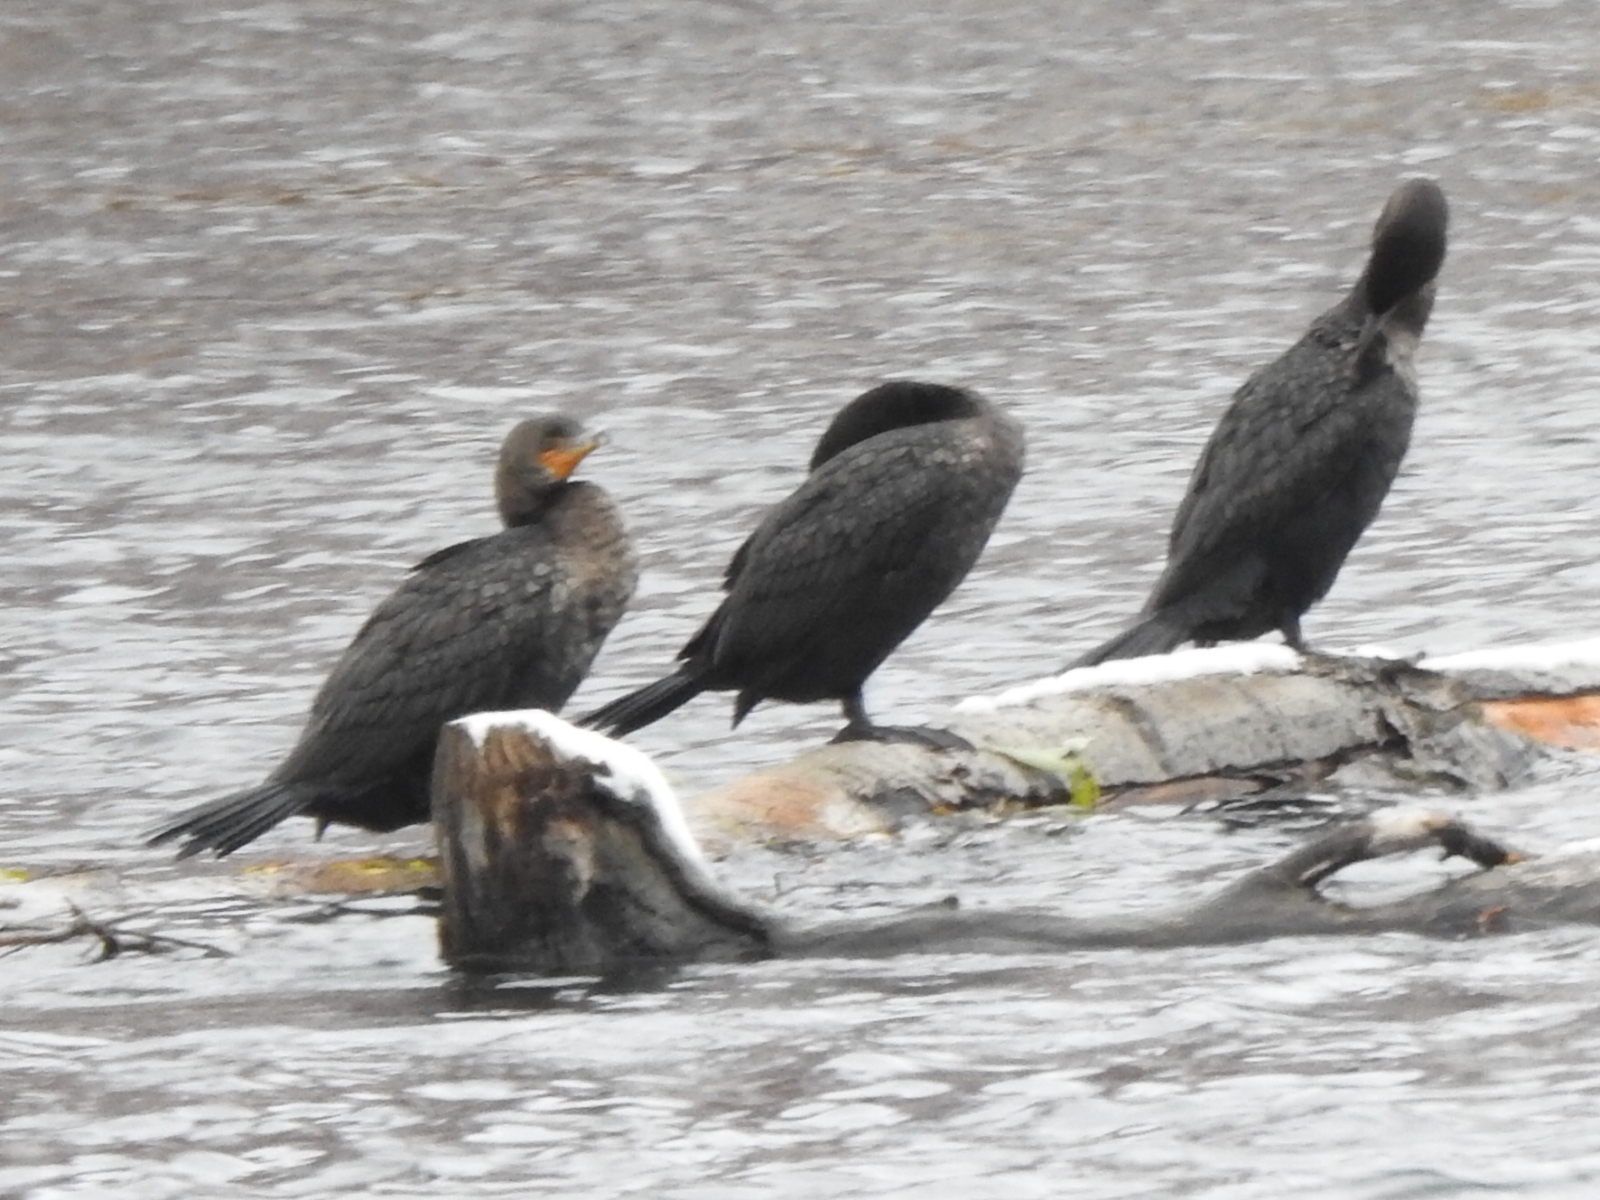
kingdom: Animalia
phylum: Chordata
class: Aves
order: Suliformes
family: Phalacrocoracidae
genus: Phalacrocorax
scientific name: Phalacrocorax auritus
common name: Double-crested cormorant
